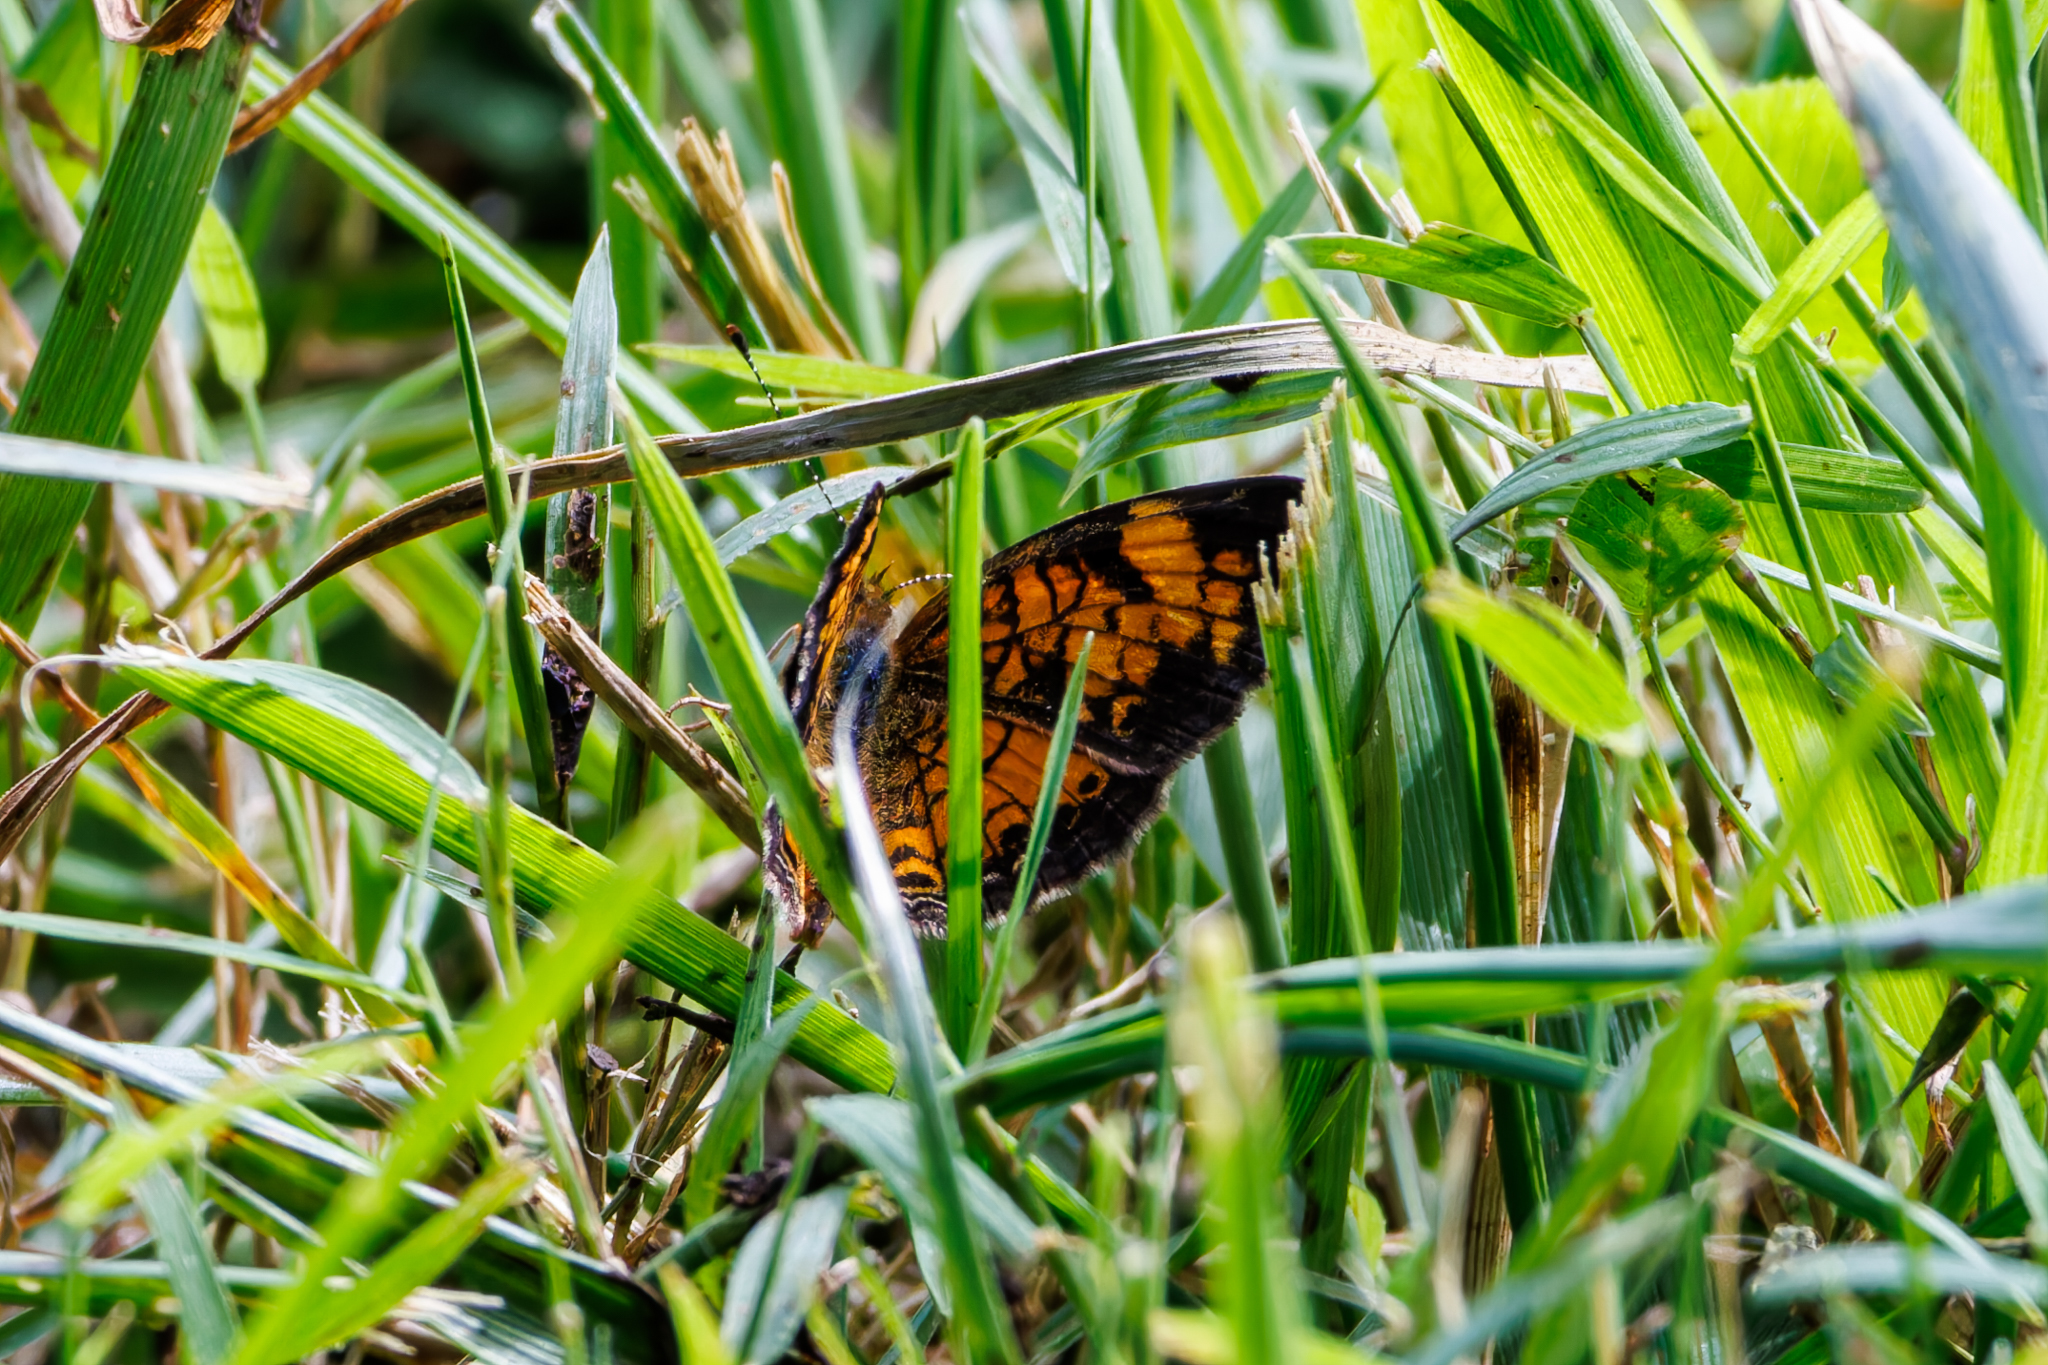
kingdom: Animalia
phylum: Arthropoda
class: Insecta
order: Lepidoptera
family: Nymphalidae
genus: Phyciodes
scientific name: Phyciodes tharos
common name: Pearl crescent
